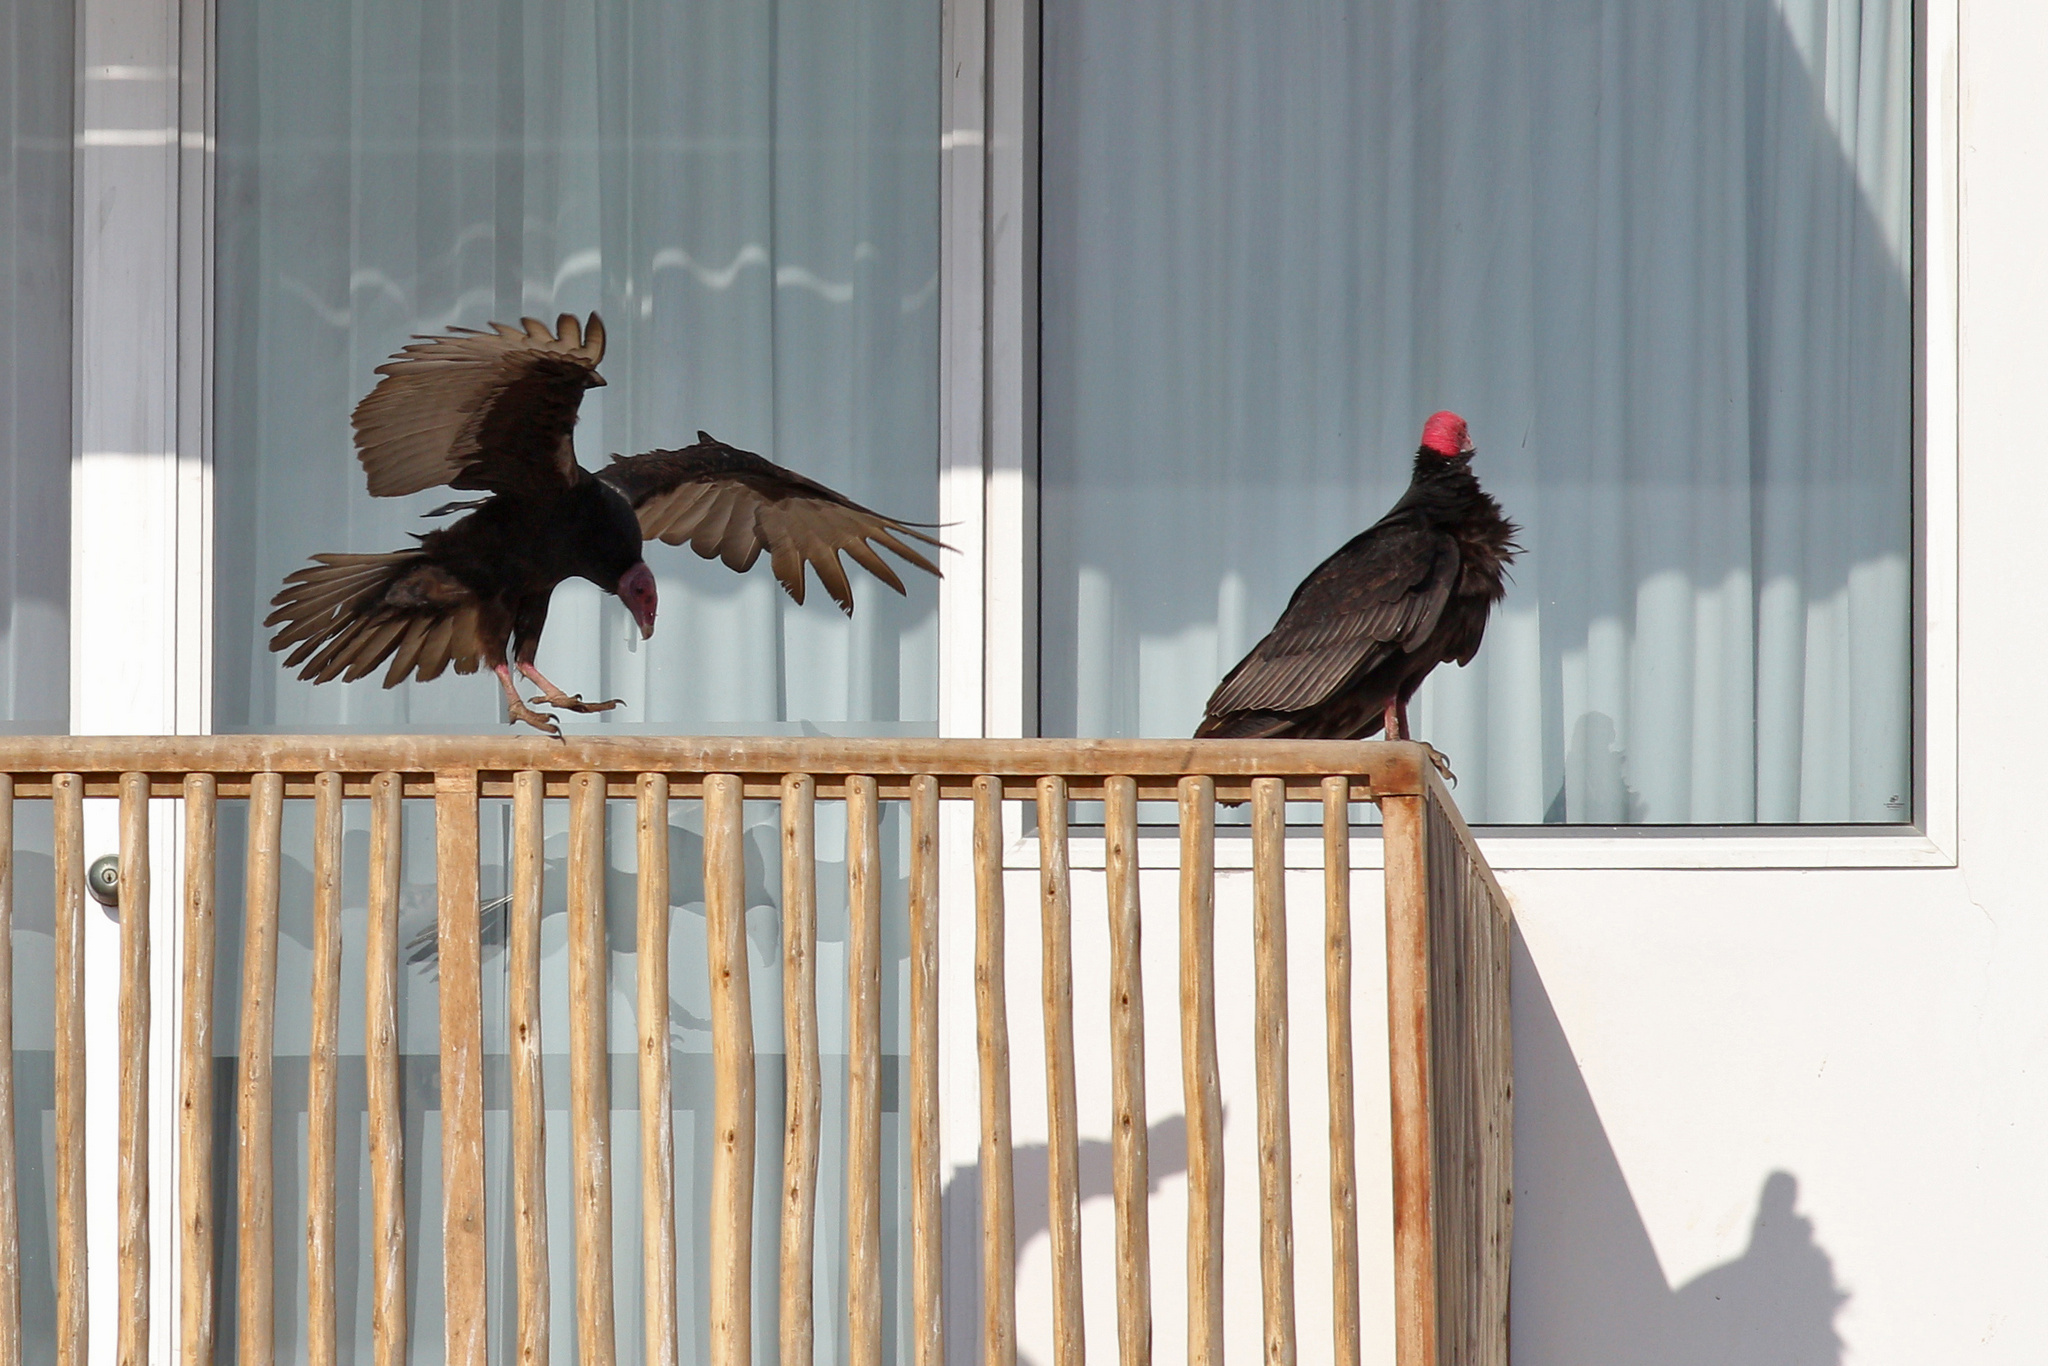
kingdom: Animalia
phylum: Chordata
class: Aves
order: Accipitriformes
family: Cathartidae
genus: Cathartes
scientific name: Cathartes aura
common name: Turkey vulture
